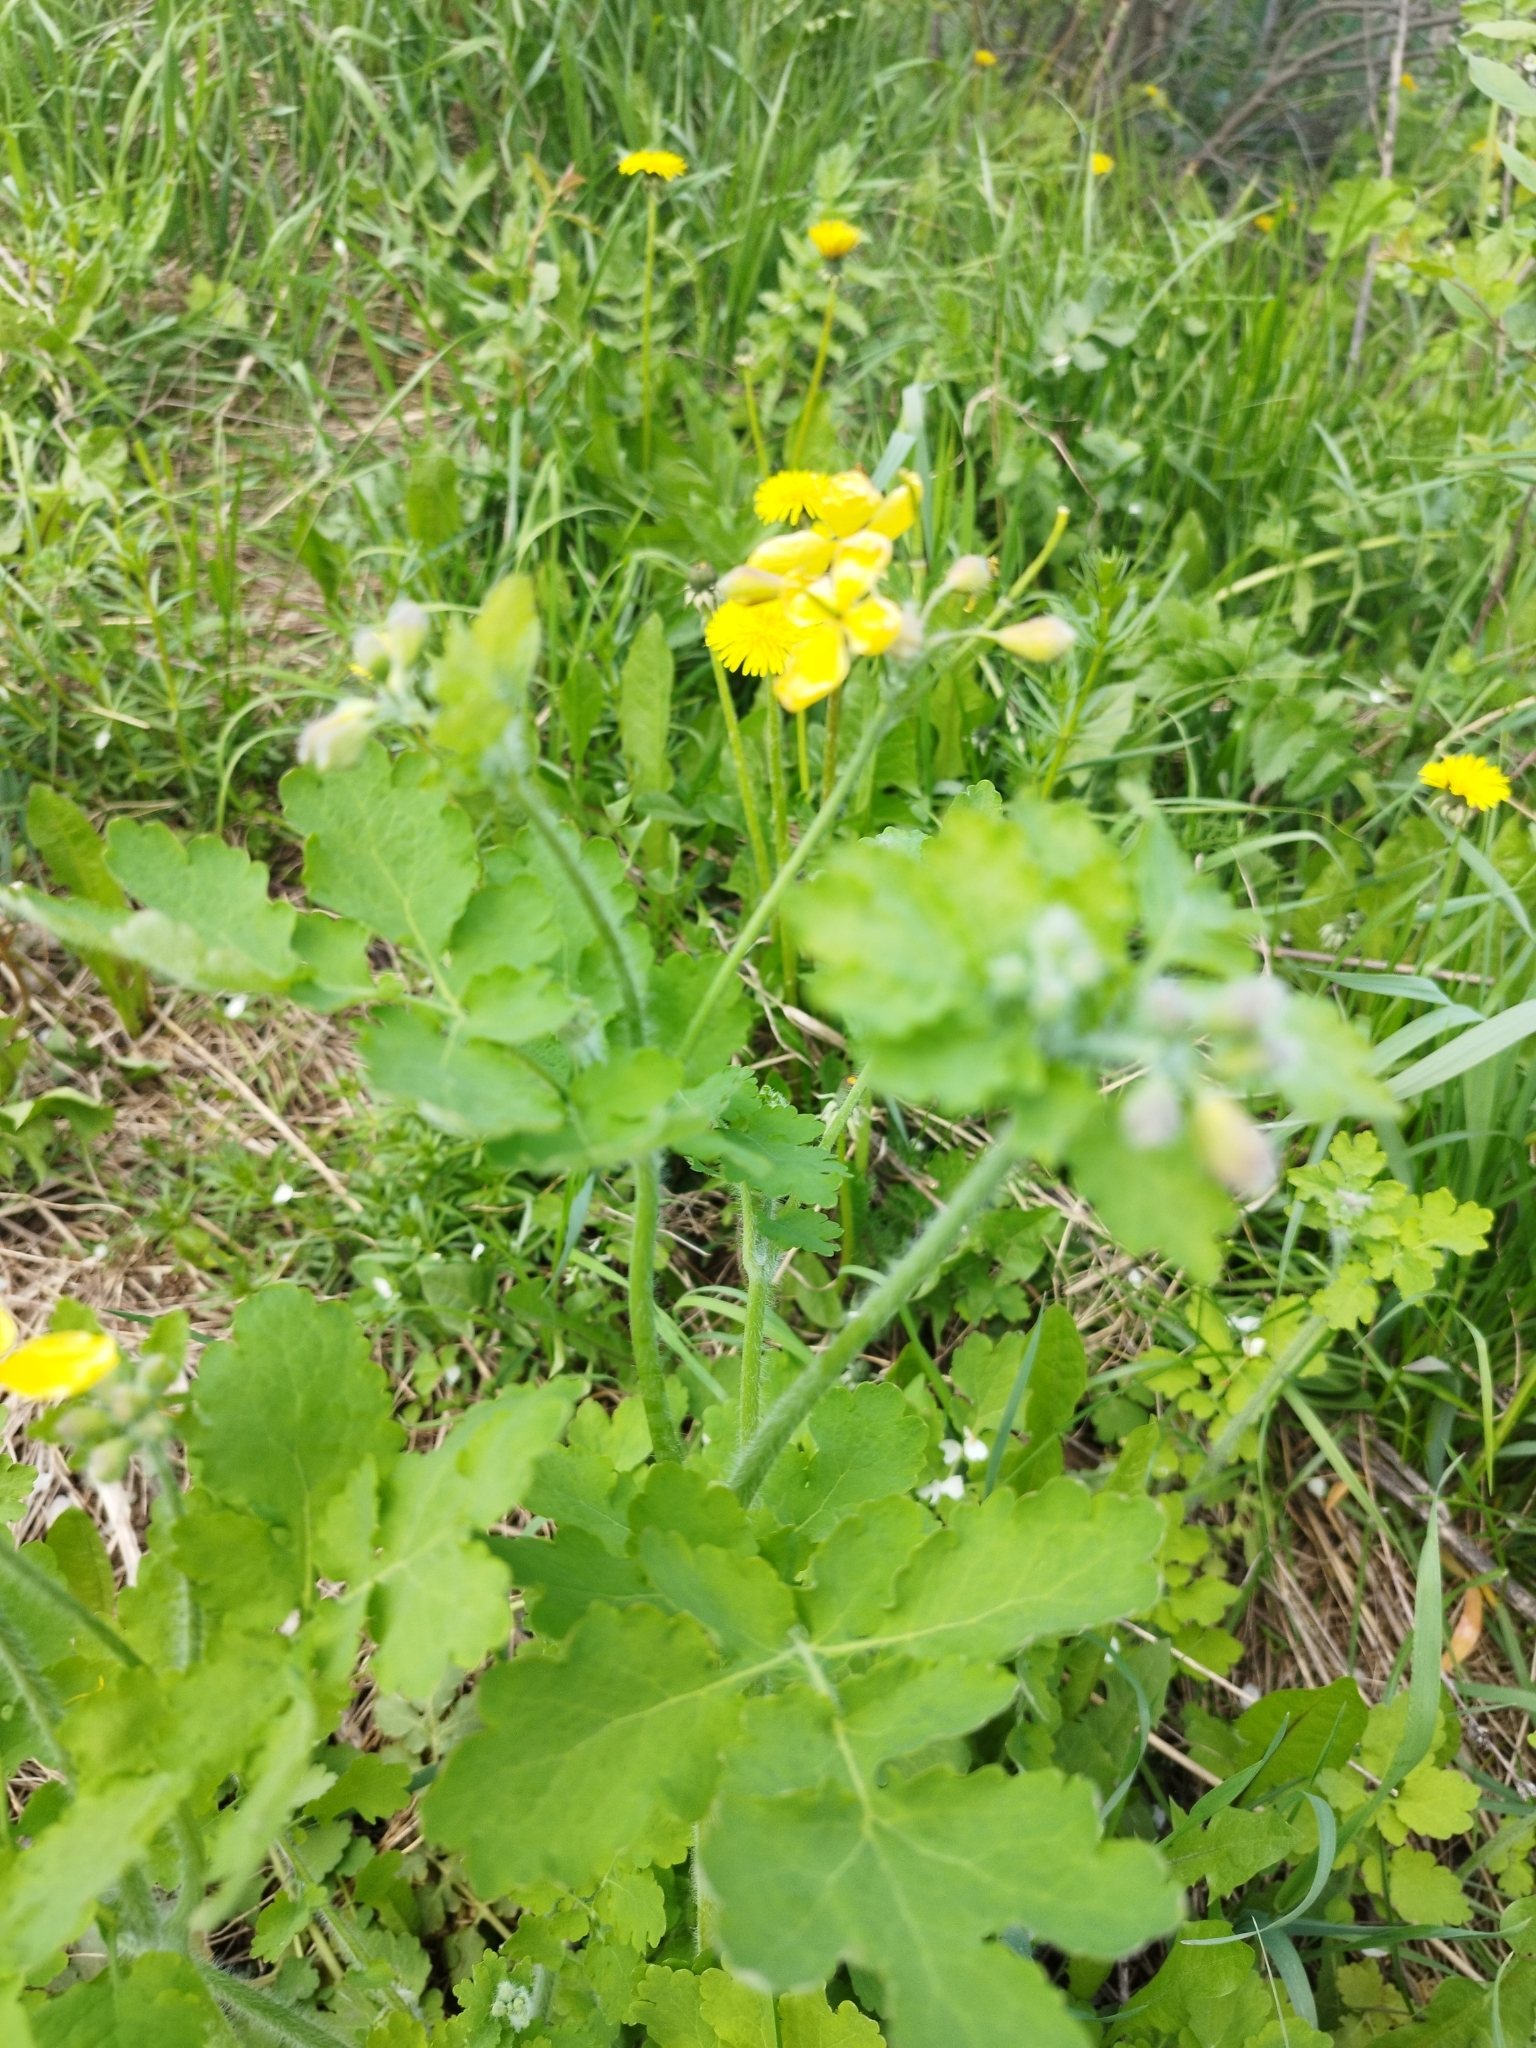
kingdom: Plantae
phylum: Tracheophyta
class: Magnoliopsida
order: Ranunculales
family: Papaveraceae
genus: Chelidonium
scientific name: Chelidonium majus
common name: Greater celandine
